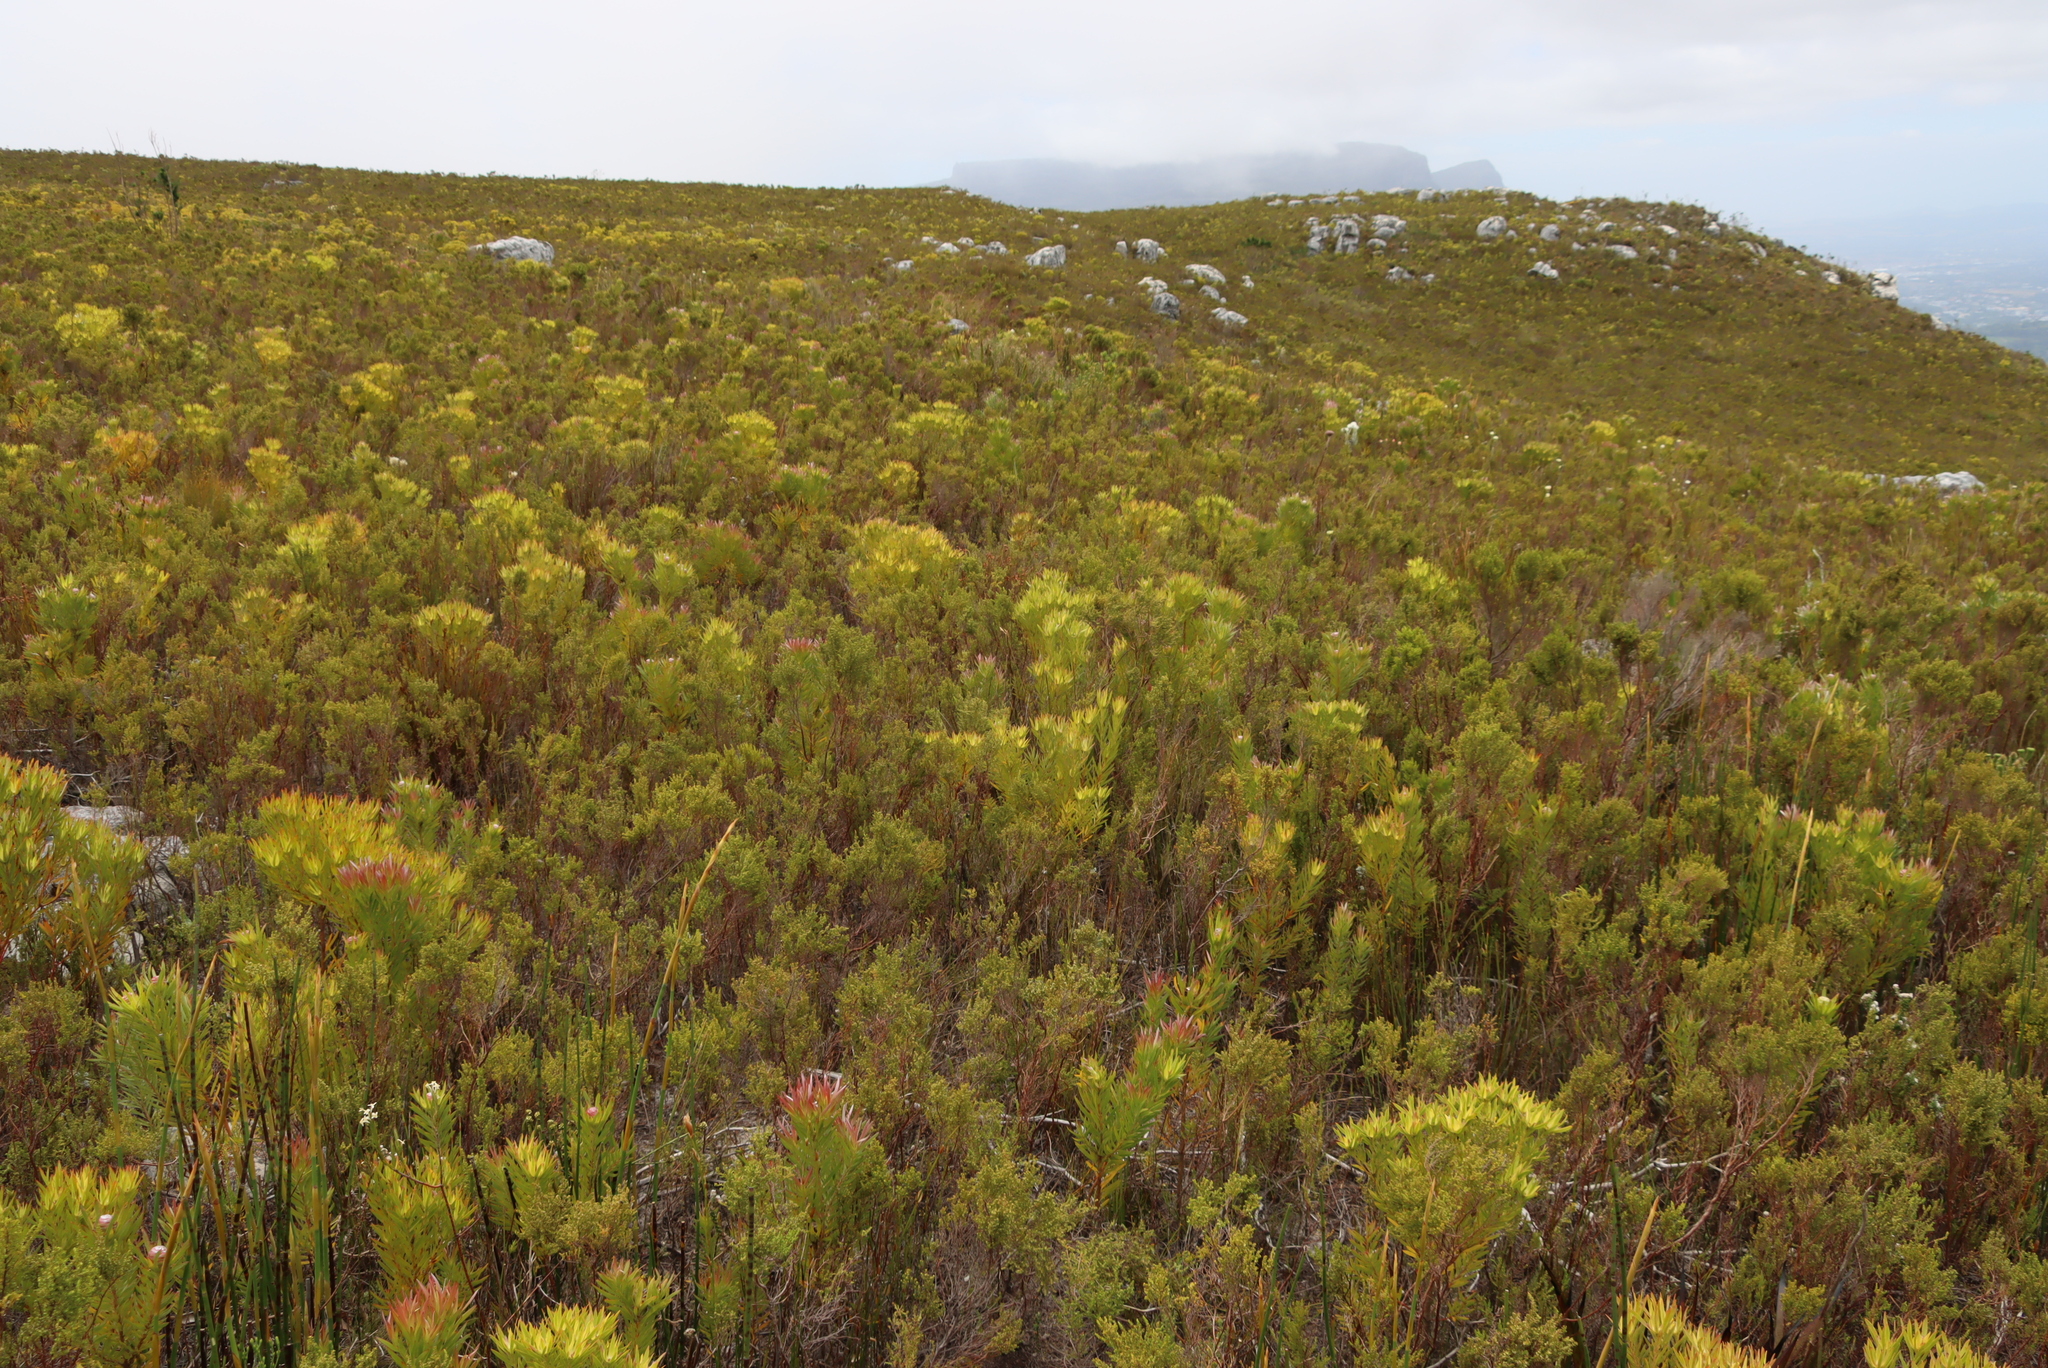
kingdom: Plantae
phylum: Tracheophyta
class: Magnoliopsida
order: Proteales
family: Proteaceae
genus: Leucadendron
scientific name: Leucadendron xanthoconus
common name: Sickle-leaf conebush
